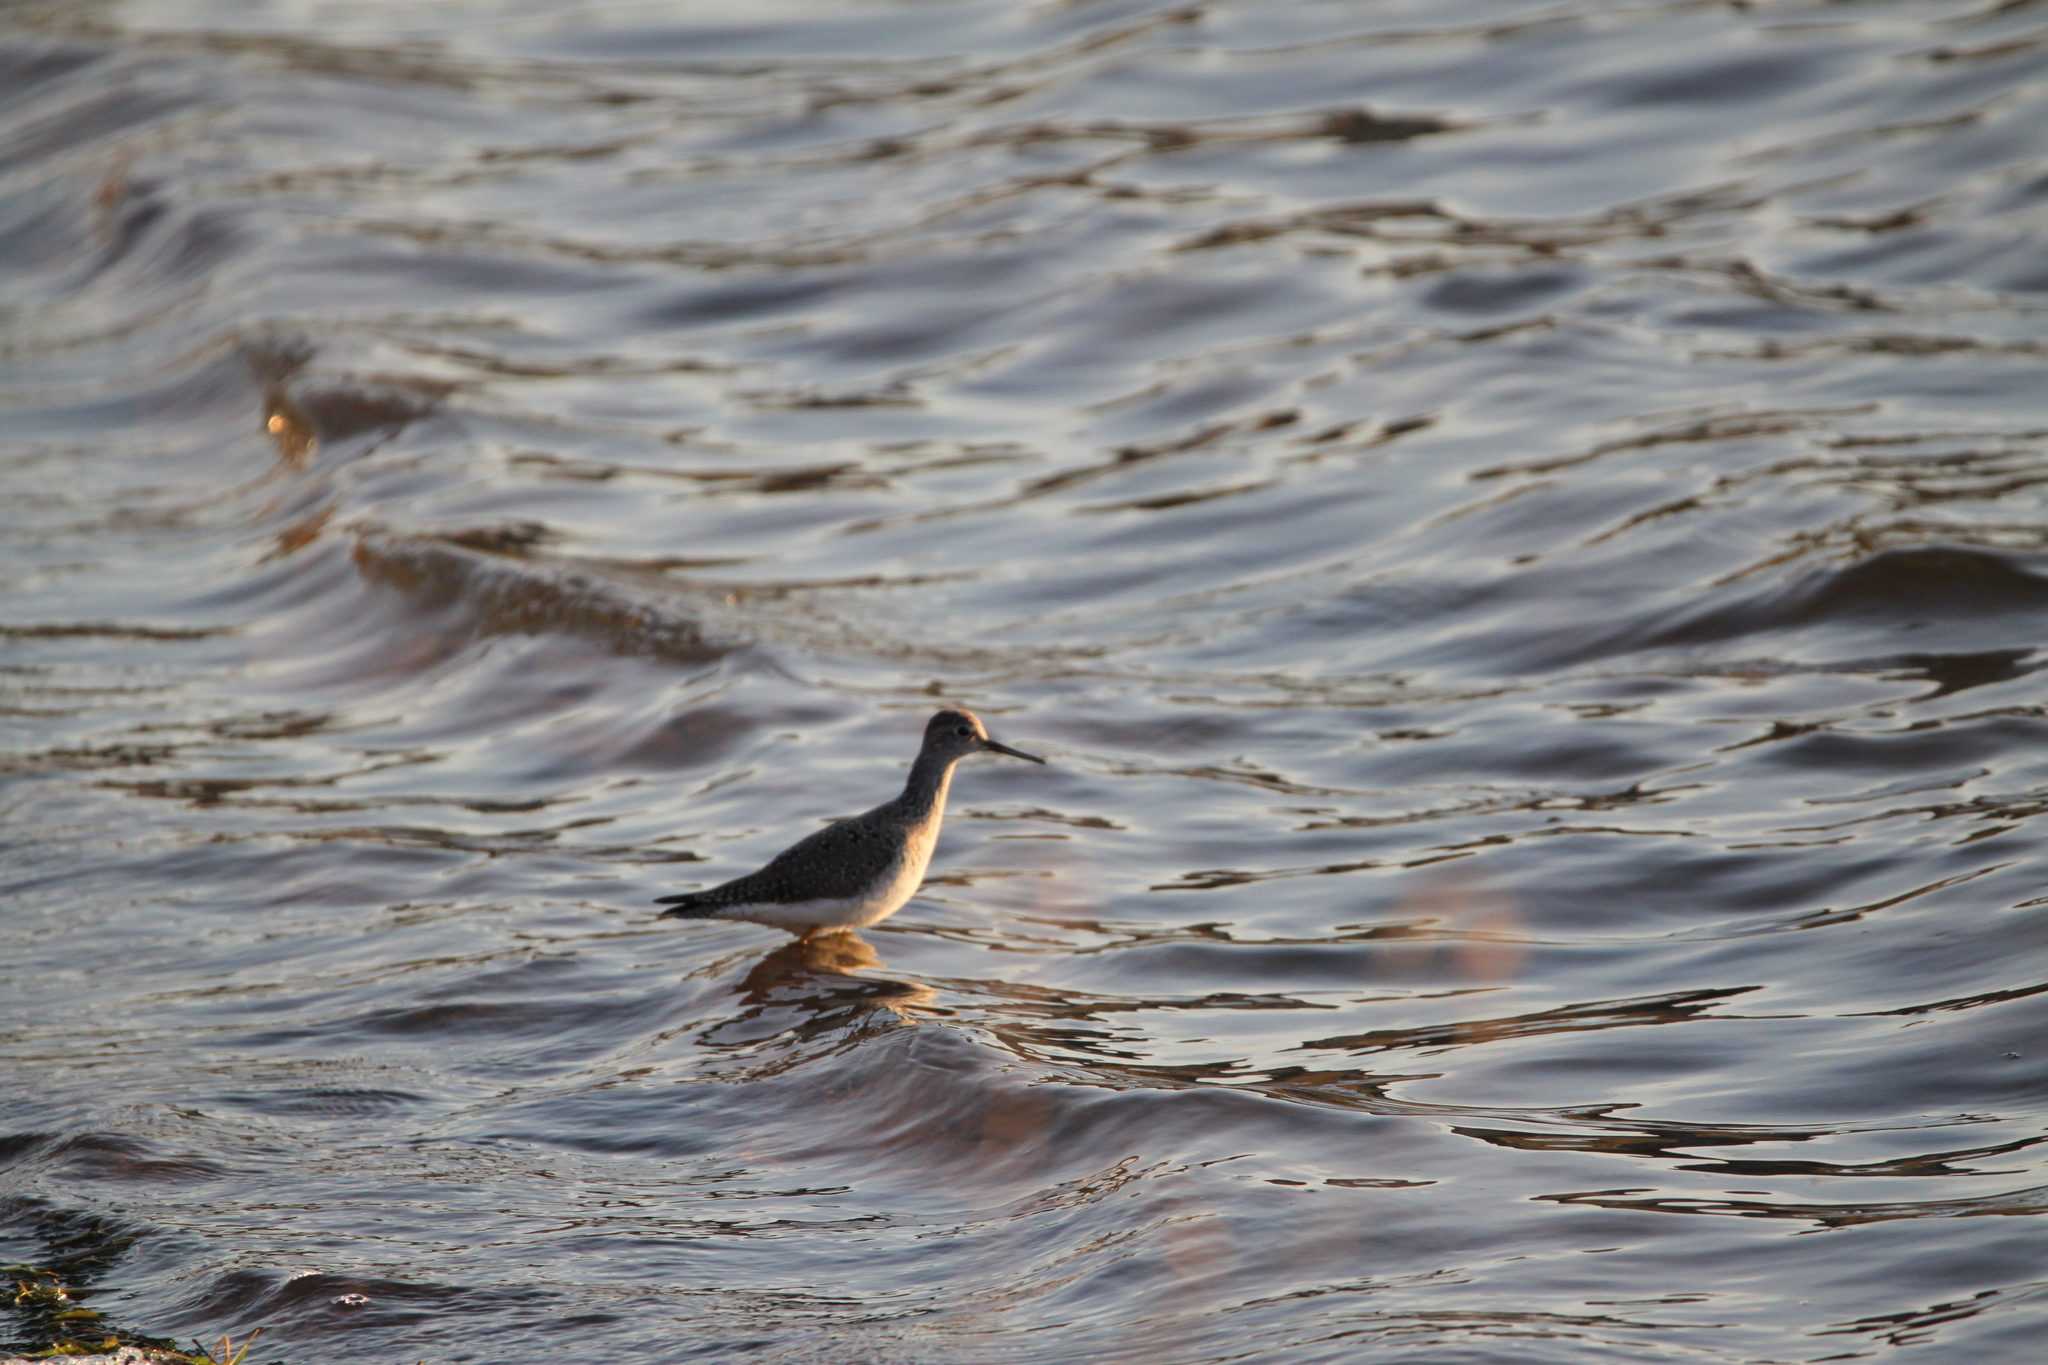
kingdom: Animalia
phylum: Chordata
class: Aves
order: Charadriiformes
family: Scolopacidae
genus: Tringa
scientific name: Tringa flavipes
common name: Lesser yellowlegs
